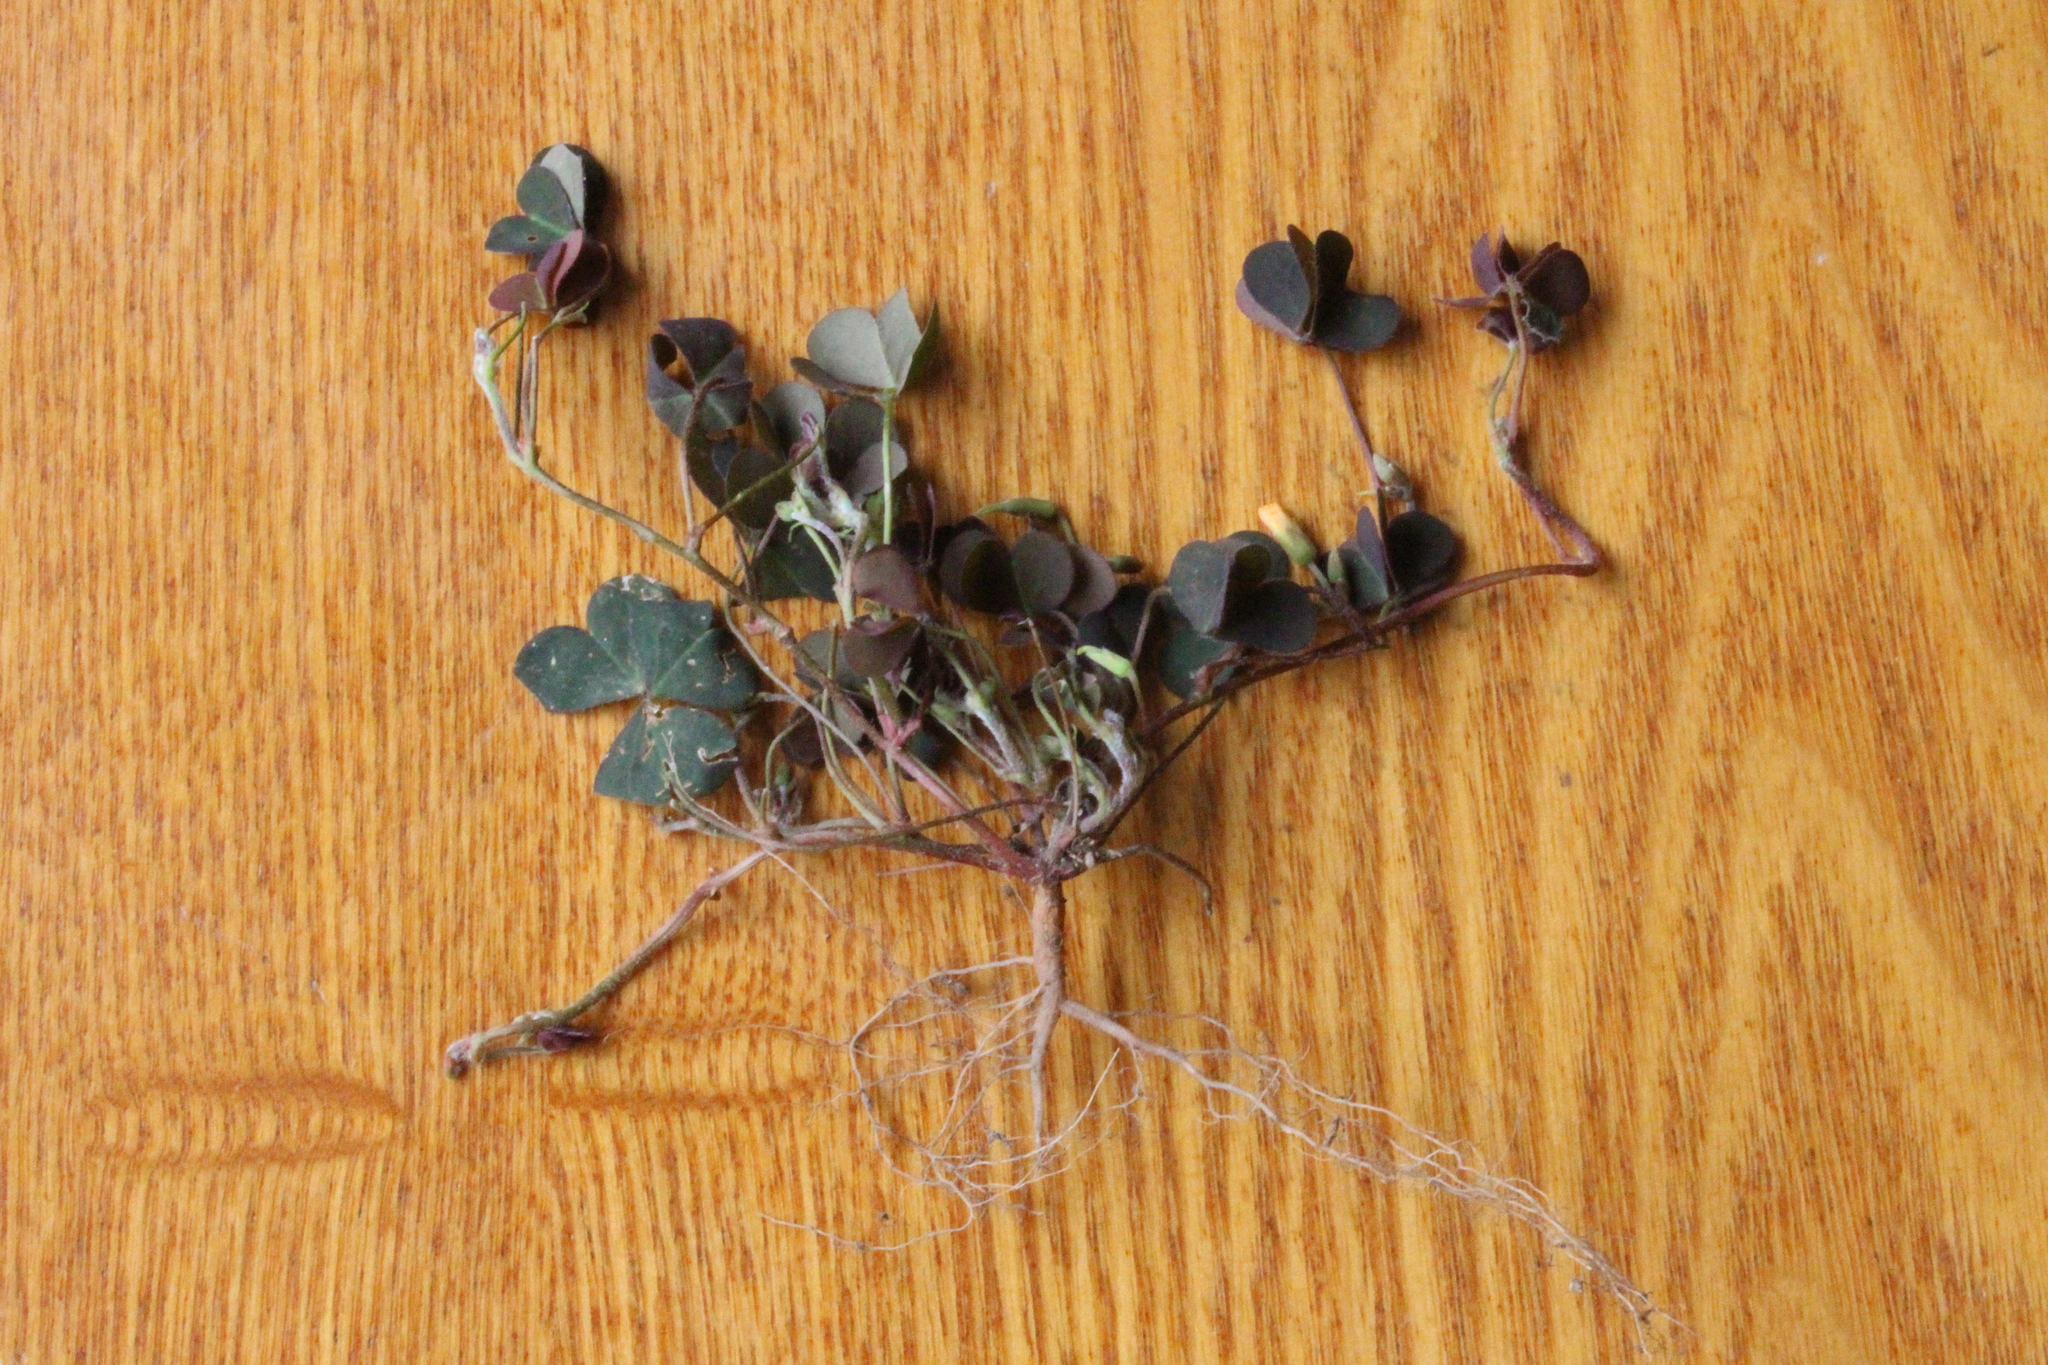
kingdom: Plantae
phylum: Tracheophyta
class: Magnoliopsida
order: Oxalidales
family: Oxalidaceae
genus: Oxalis
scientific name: Oxalis corniculata
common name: Procumbent yellow-sorrel
